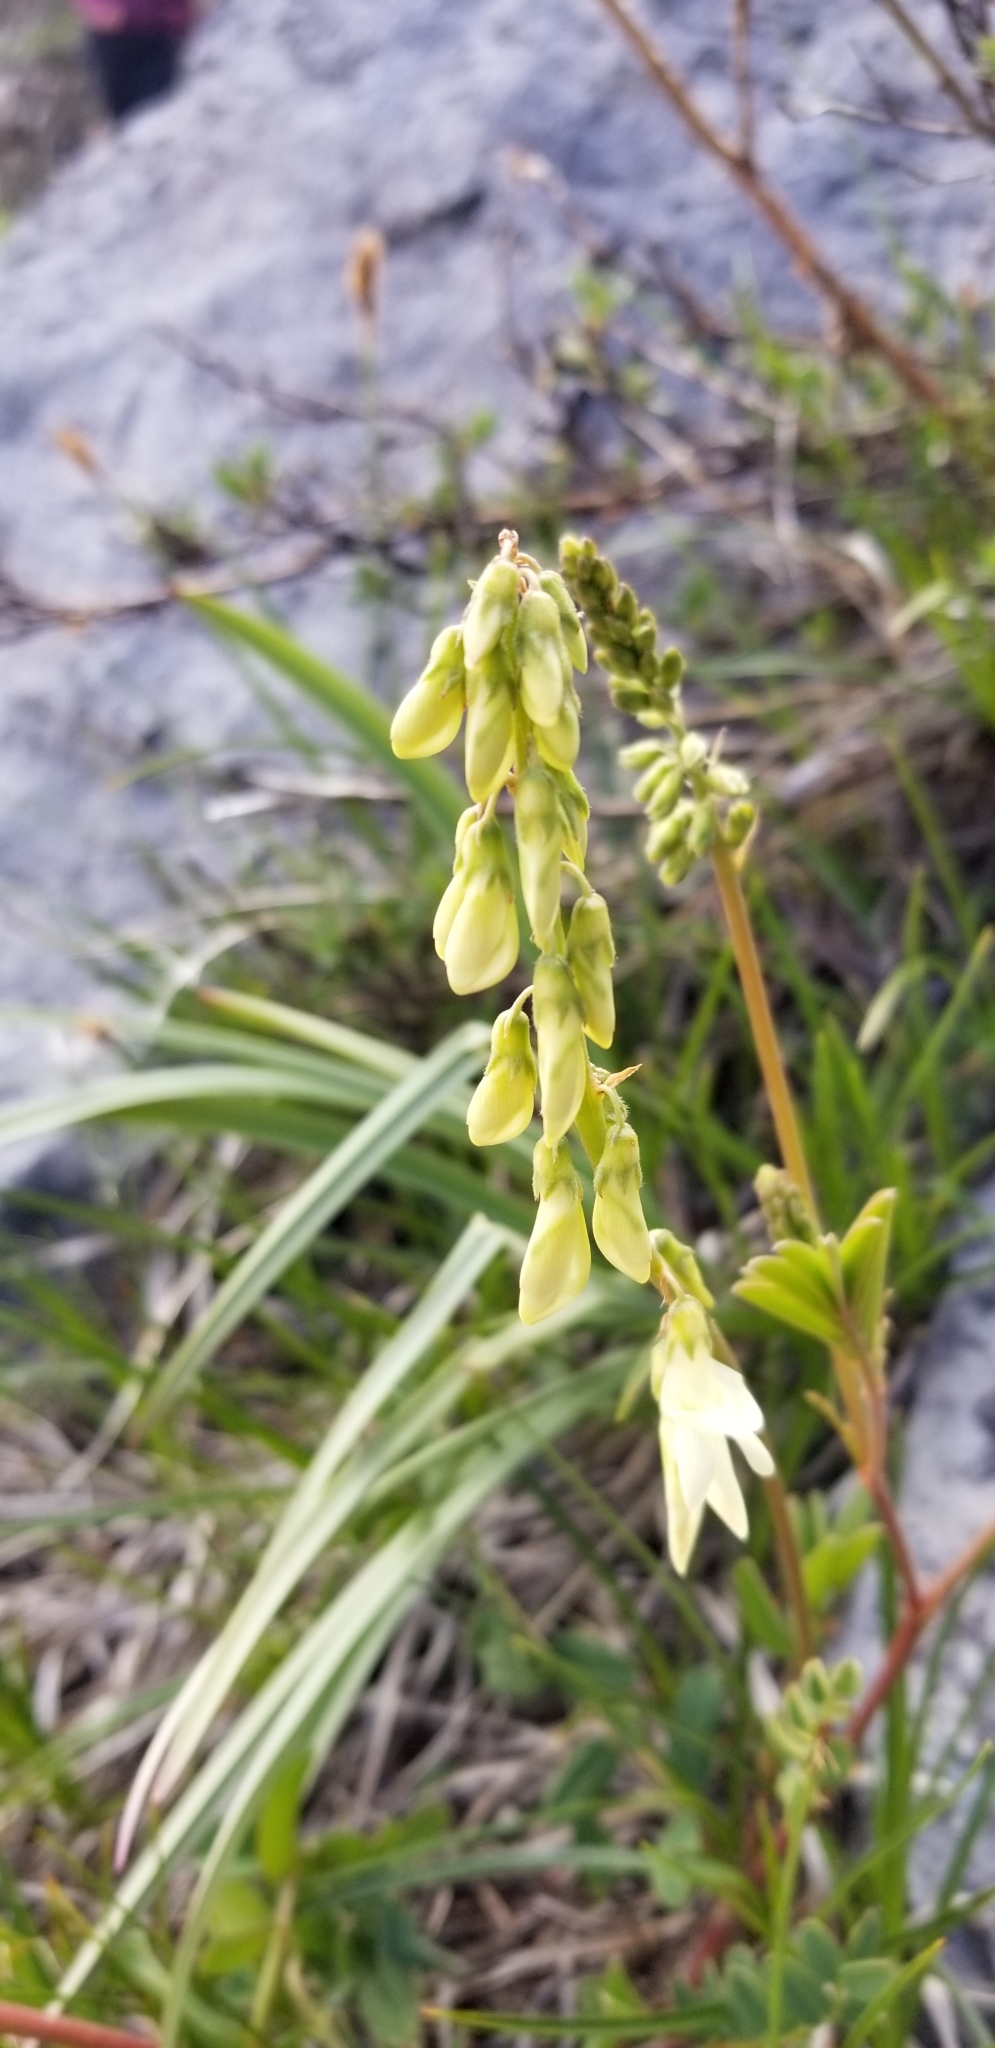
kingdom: Plantae
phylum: Tracheophyta
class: Magnoliopsida
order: Fabales
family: Fabaceae
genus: Hedysarum
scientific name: Hedysarum sulphurescens
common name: Sulphur hedysarum
